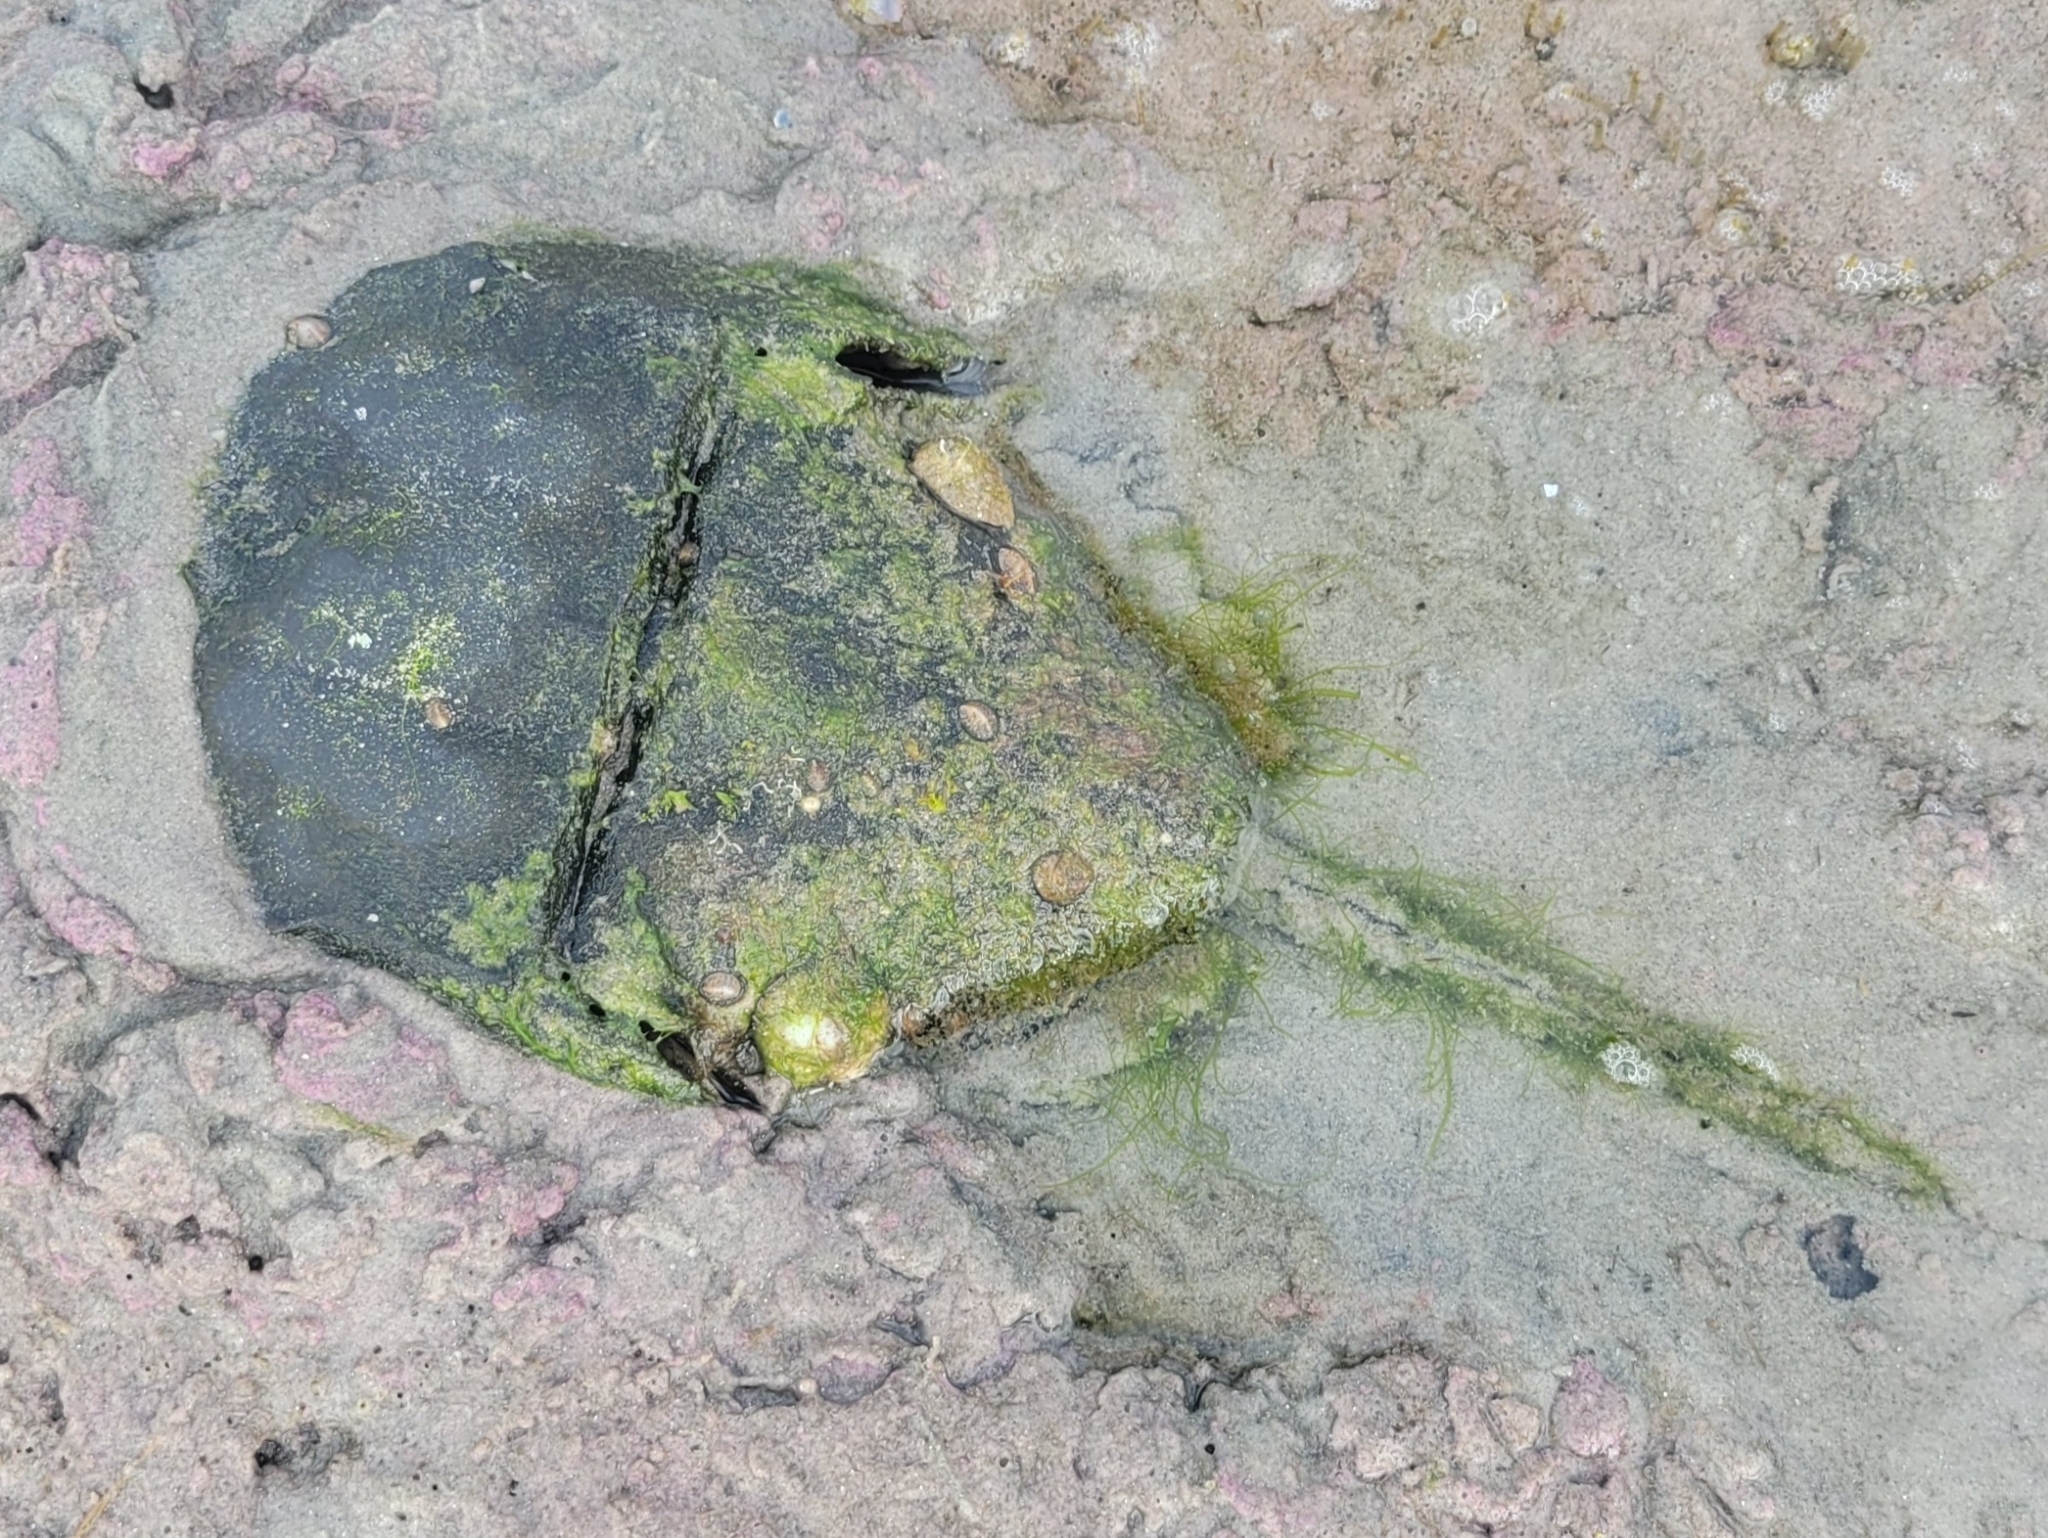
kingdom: Animalia
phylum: Arthropoda
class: Merostomata
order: Xiphosurida
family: Limulidae
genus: Limulus
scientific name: Limulus polyphemus
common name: Horseshoe crab
